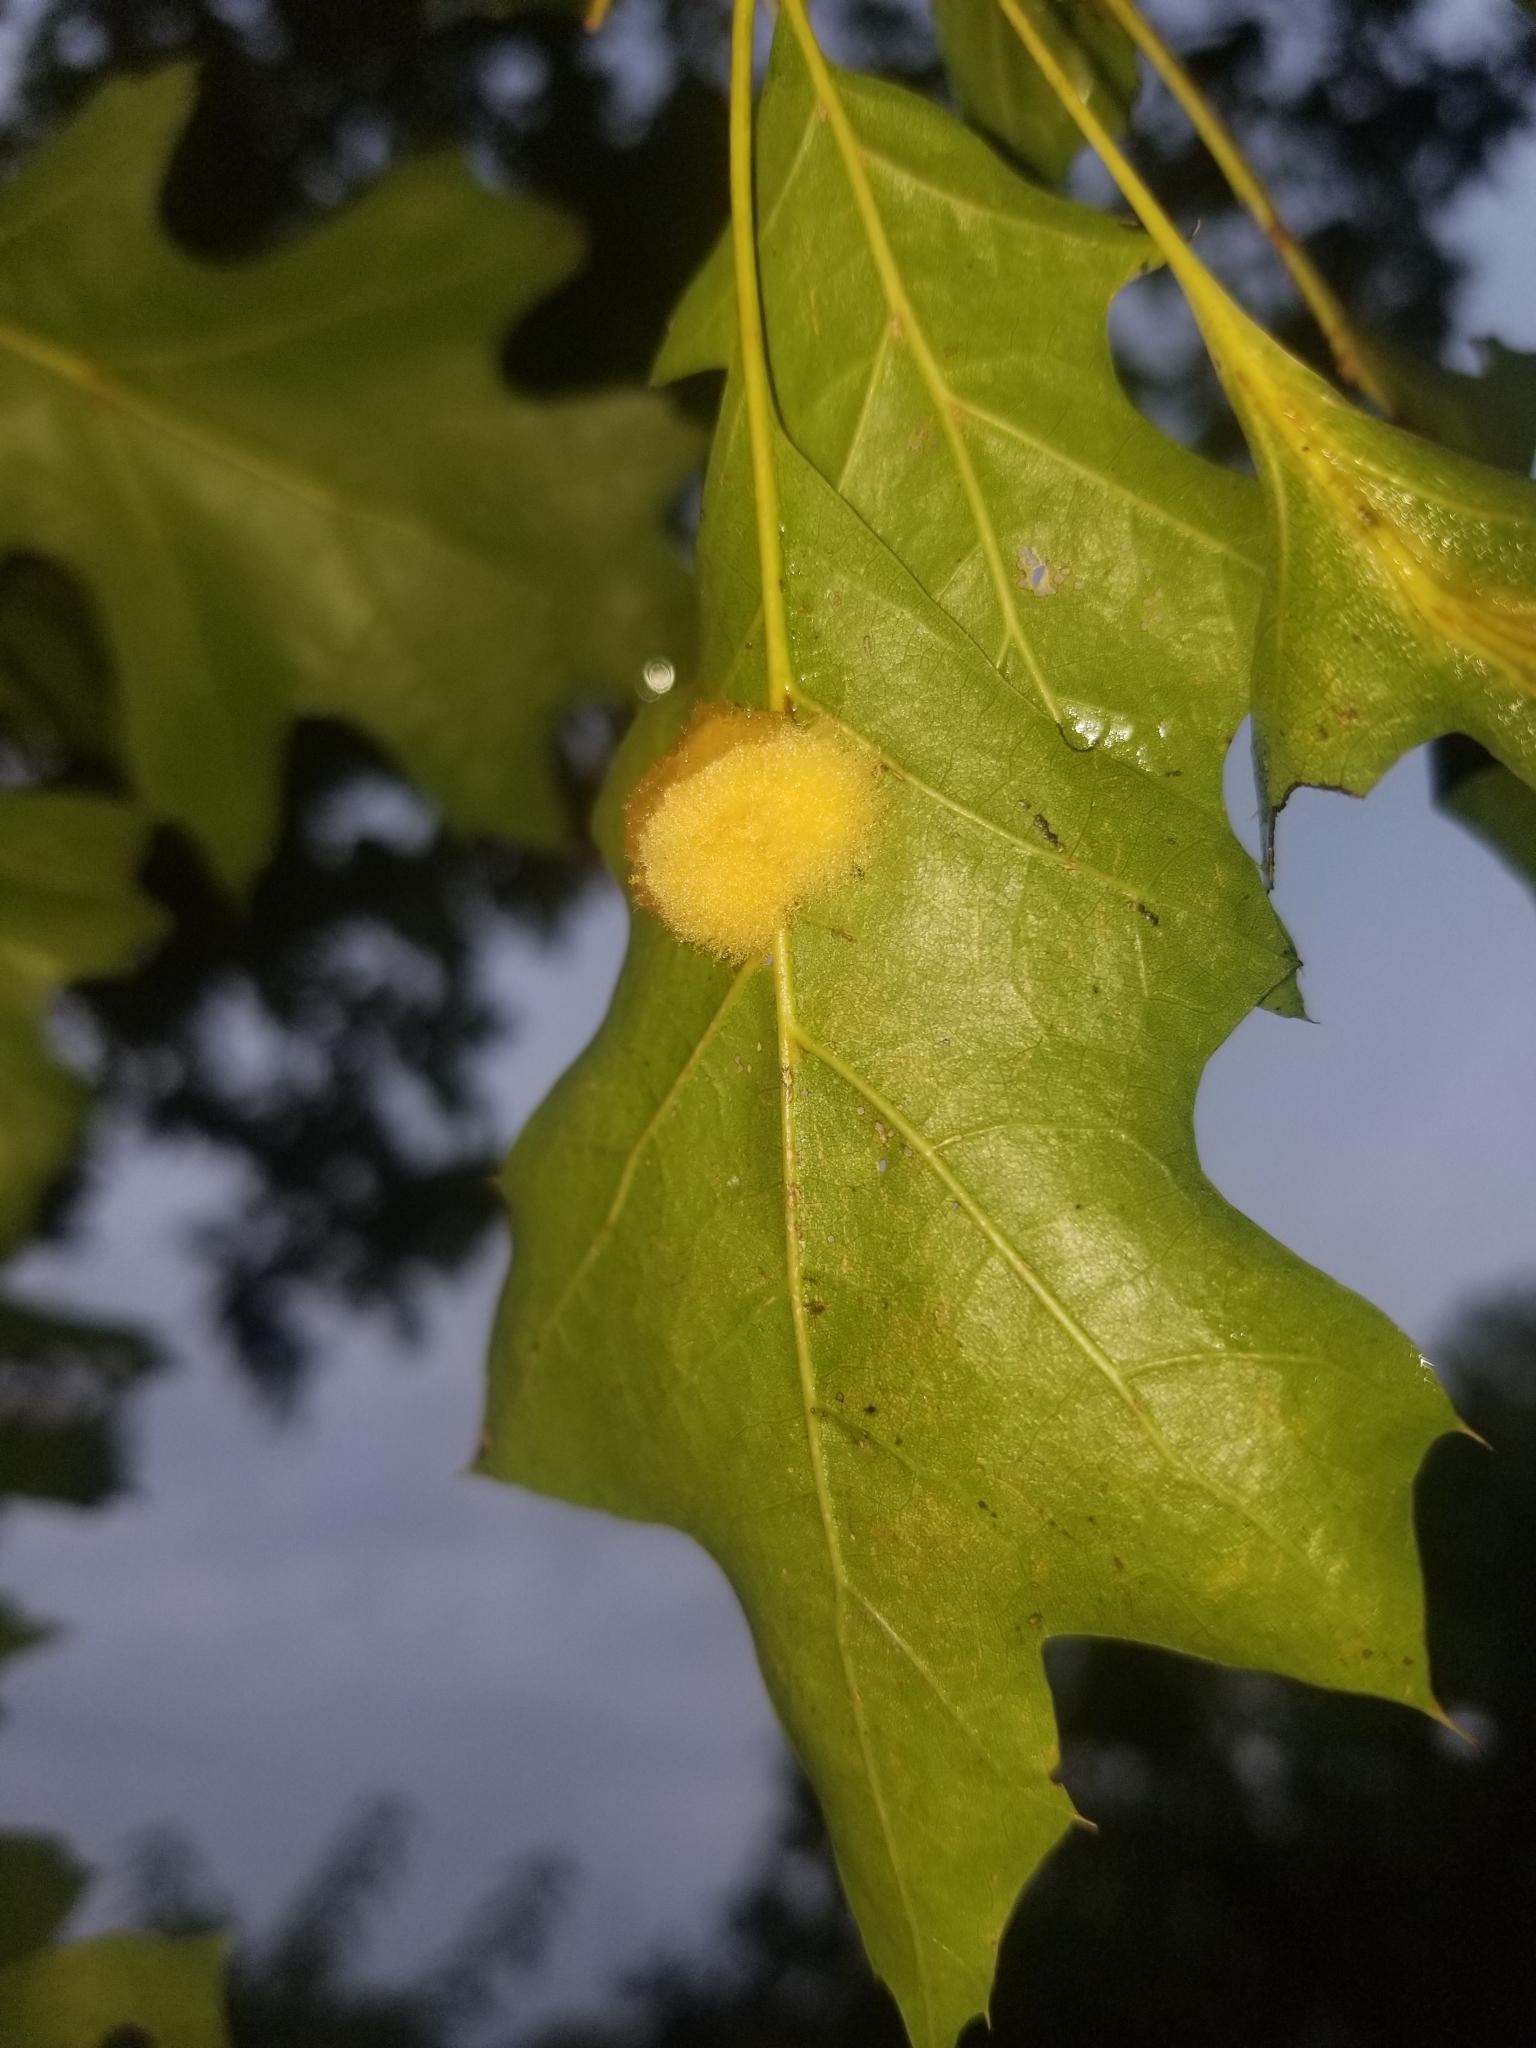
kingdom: Animalia
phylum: Arthropoda
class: Insecta
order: Hymenoptera
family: Cynipidae
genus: Callirhytis
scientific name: Callirhytis
